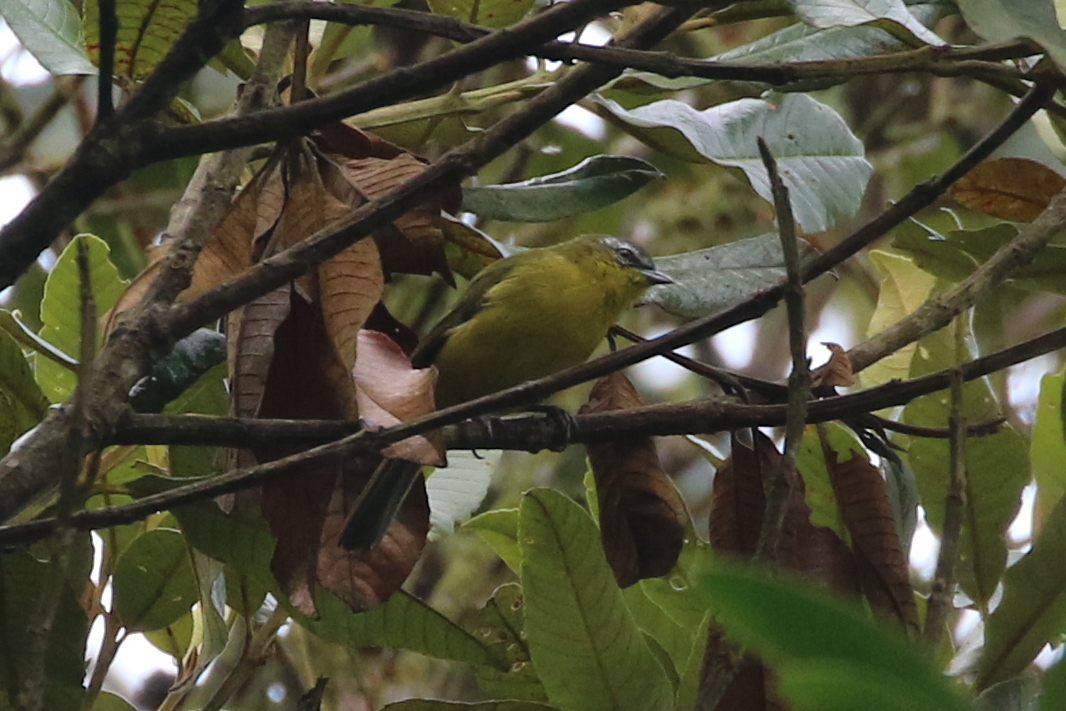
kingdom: Animalia
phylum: Chordata
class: Aves
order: Passeriformes
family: Thraupidae
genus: Thlypopsis
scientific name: Thlypopsis superciliaris
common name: Superciliaried hemispingus
